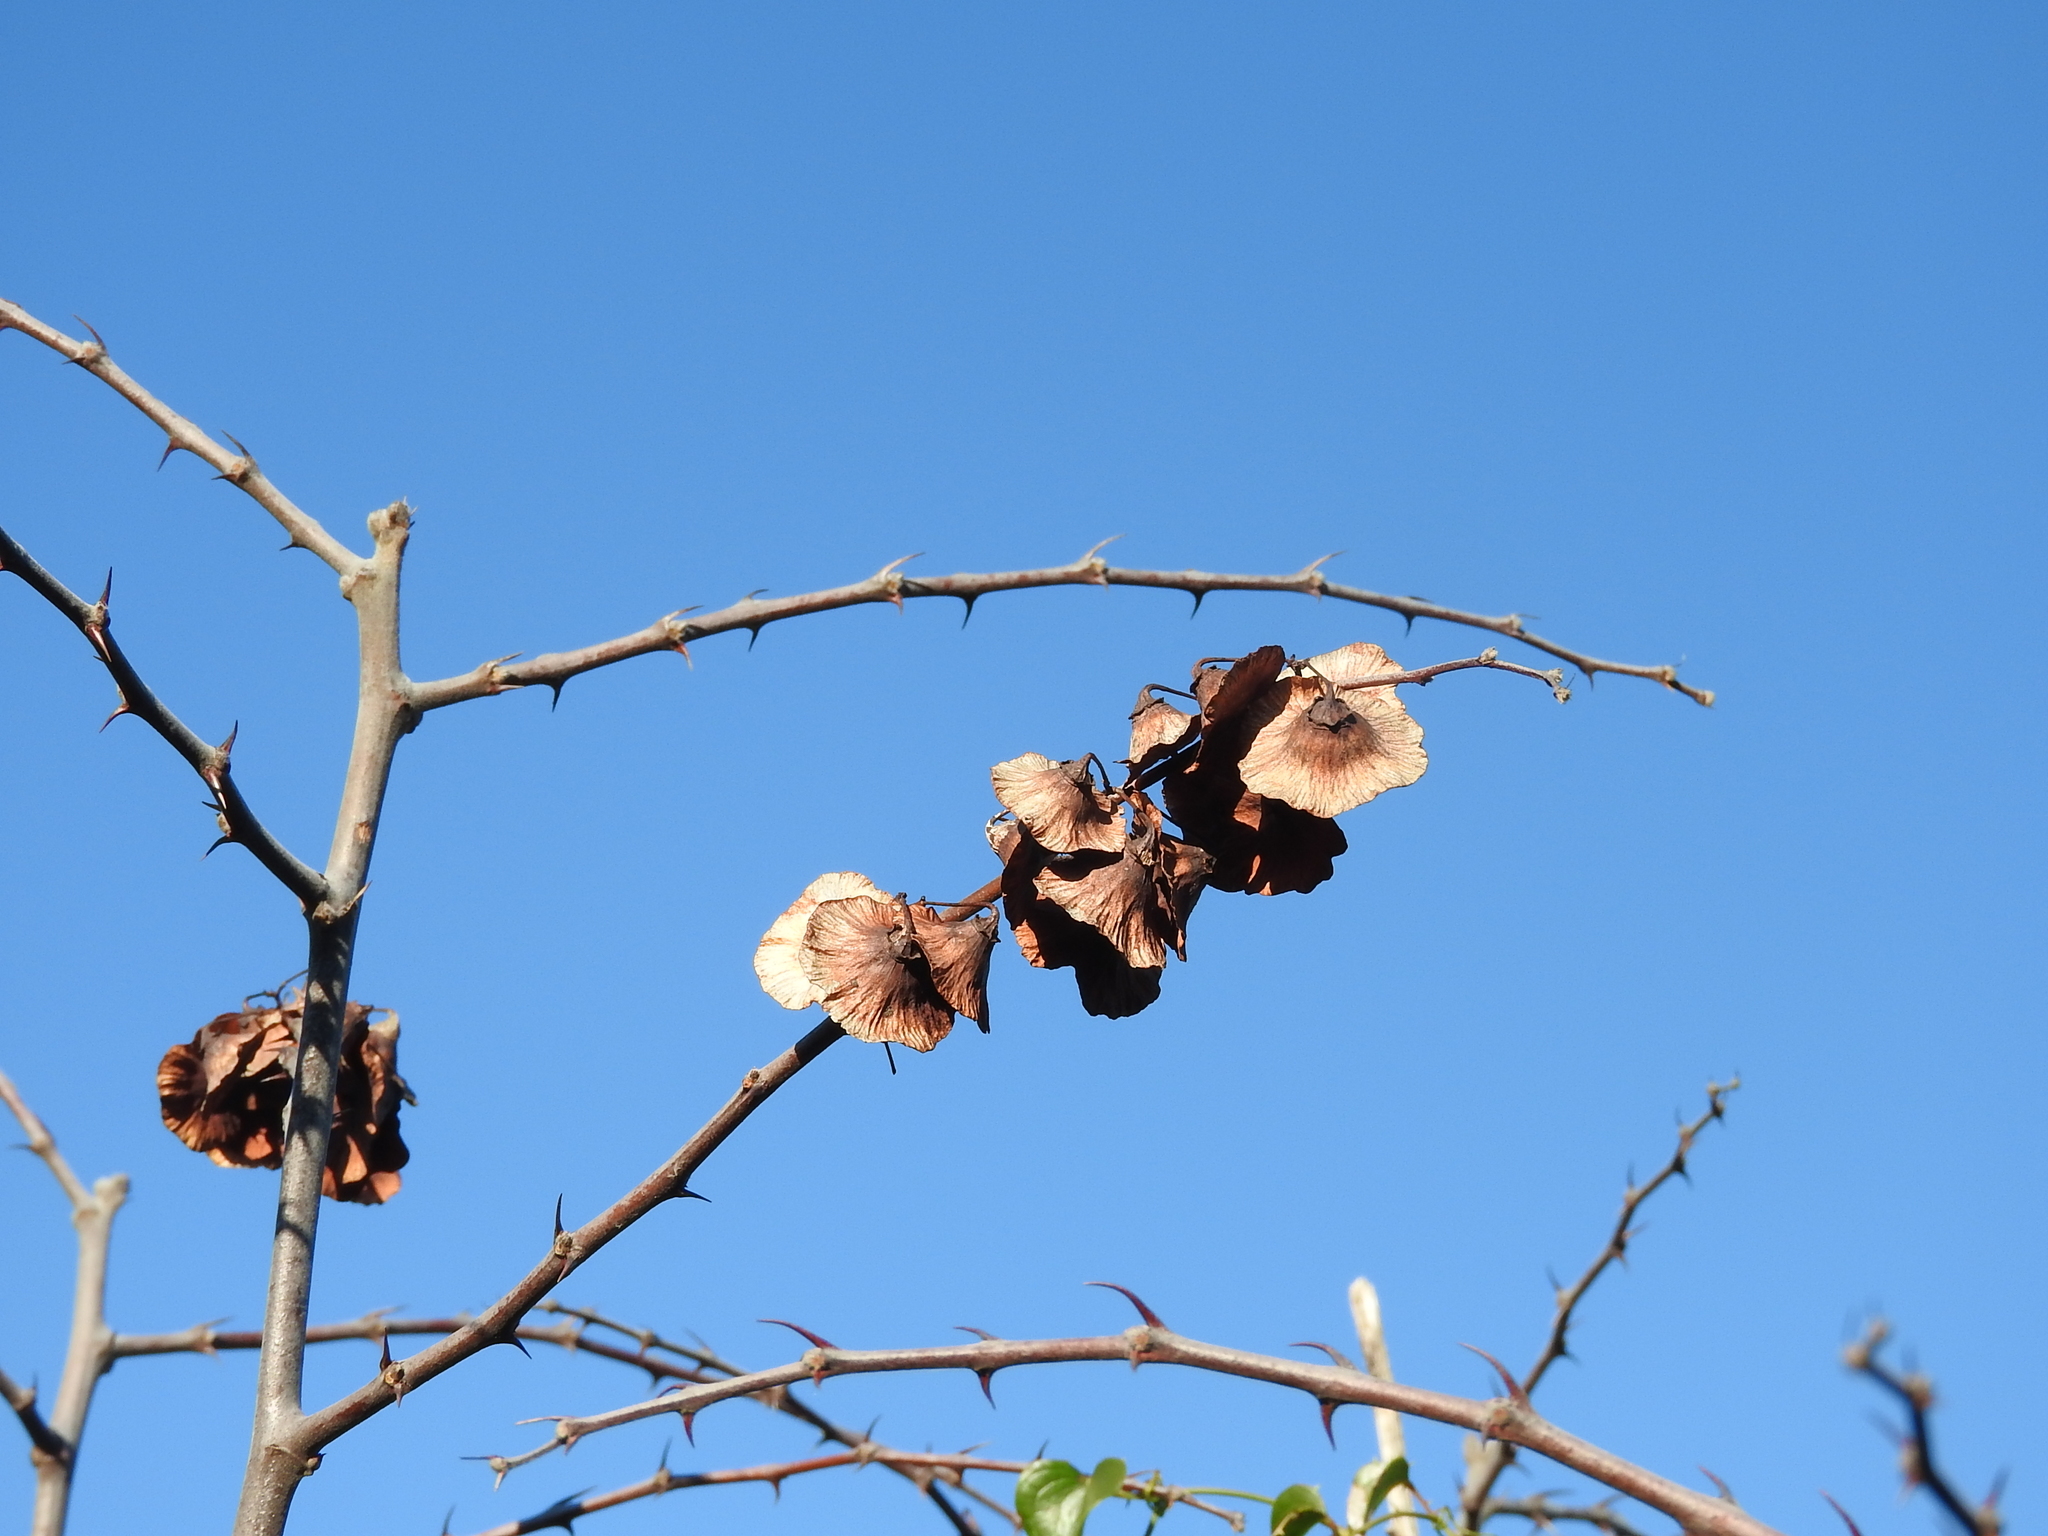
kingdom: Plantae
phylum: Tracheophyta
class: Magnoliopsida
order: Rosales
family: Rhamnaceae
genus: Paliurus
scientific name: Paliurus spina-christi
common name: Jeruselem thorn
